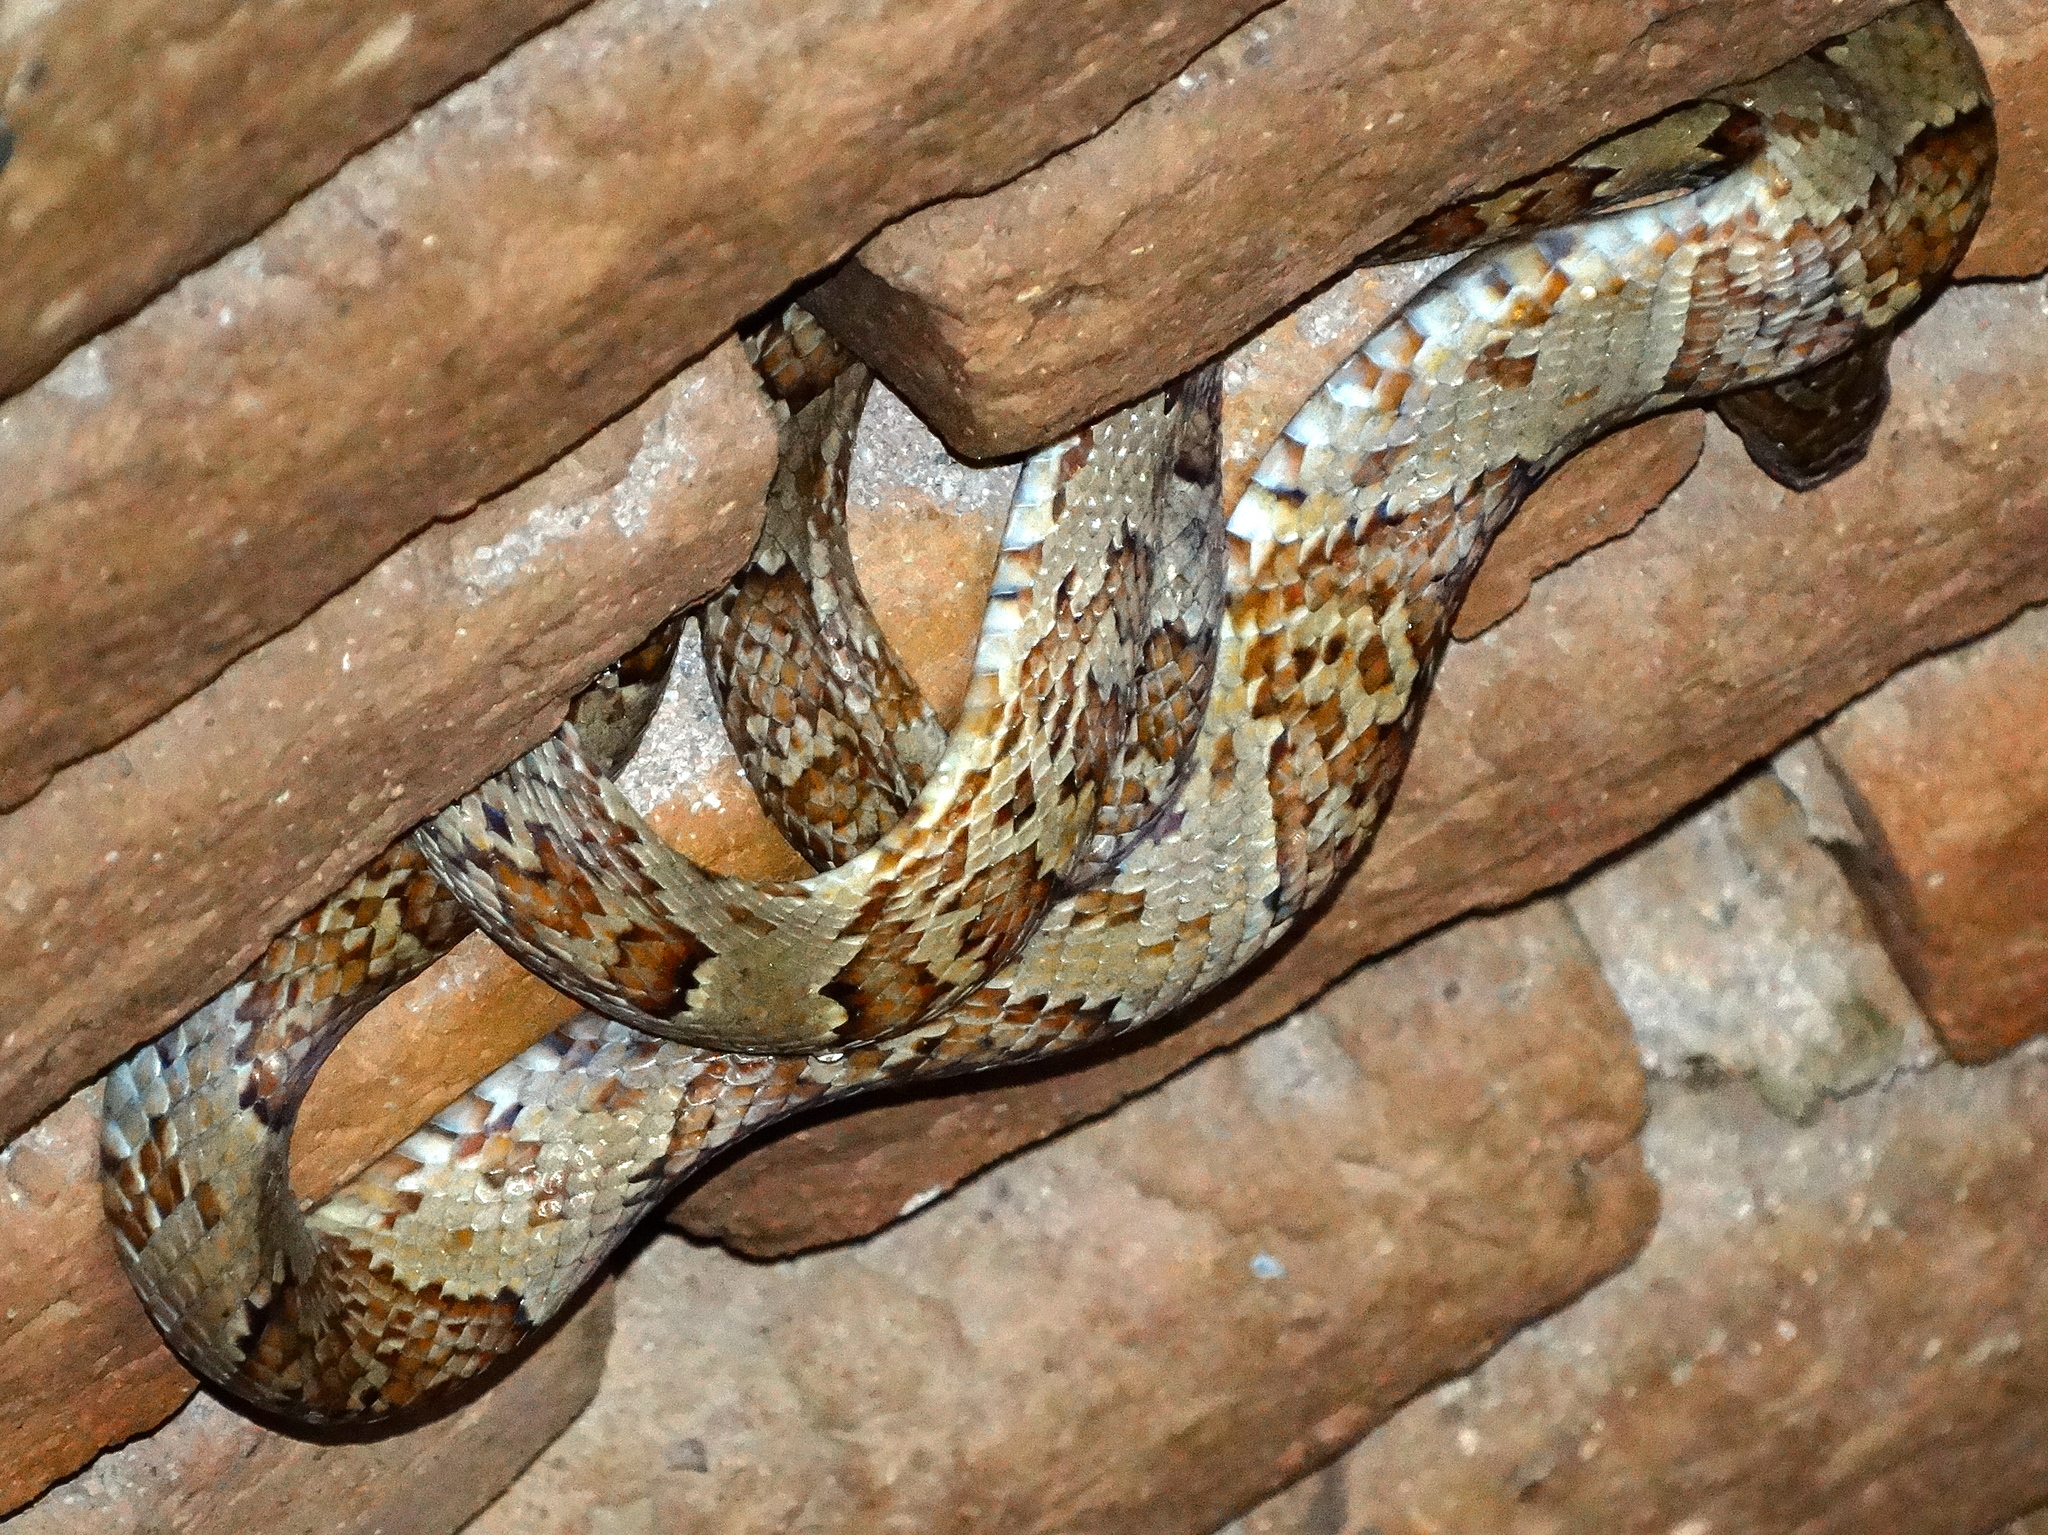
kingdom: Animalia
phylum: Chordata
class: Squamata
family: Colubridae
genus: Trimorphodon
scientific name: Trimorphodon paucimaculatus
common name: Sinaloan lyresnake
